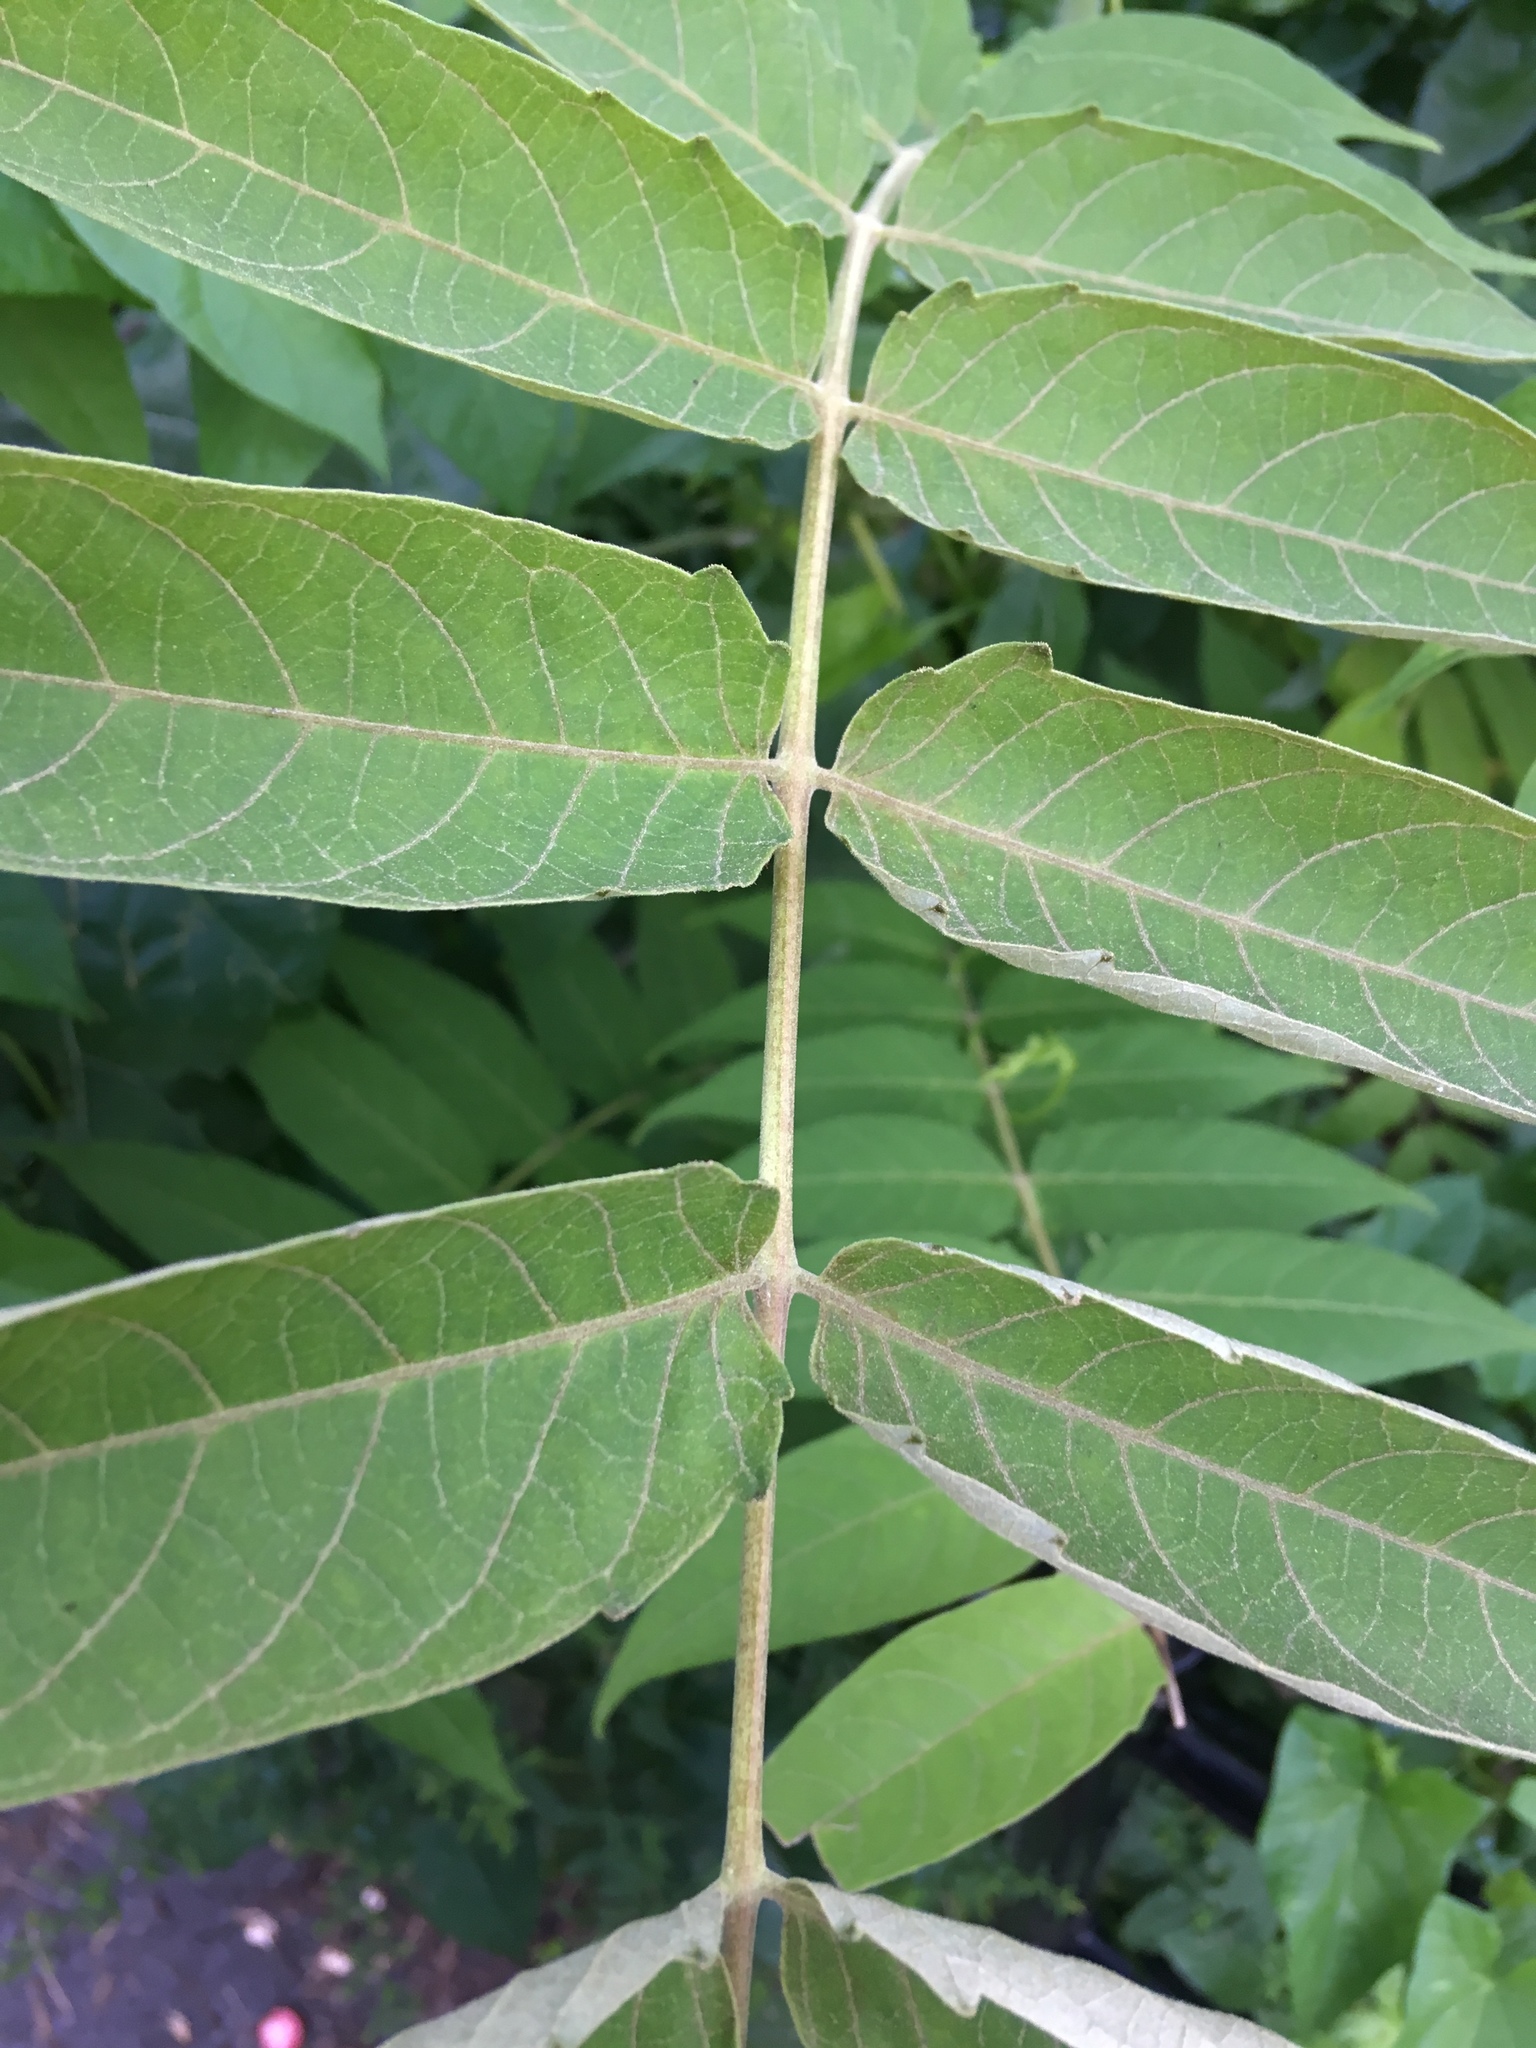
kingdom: Plantae
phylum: Tracheophyta
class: Magnoliopsida
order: Sapindales
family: Simaroubaceae
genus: Ailanthus
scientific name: Ailanthus altissima
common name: Tree-of-heaven
